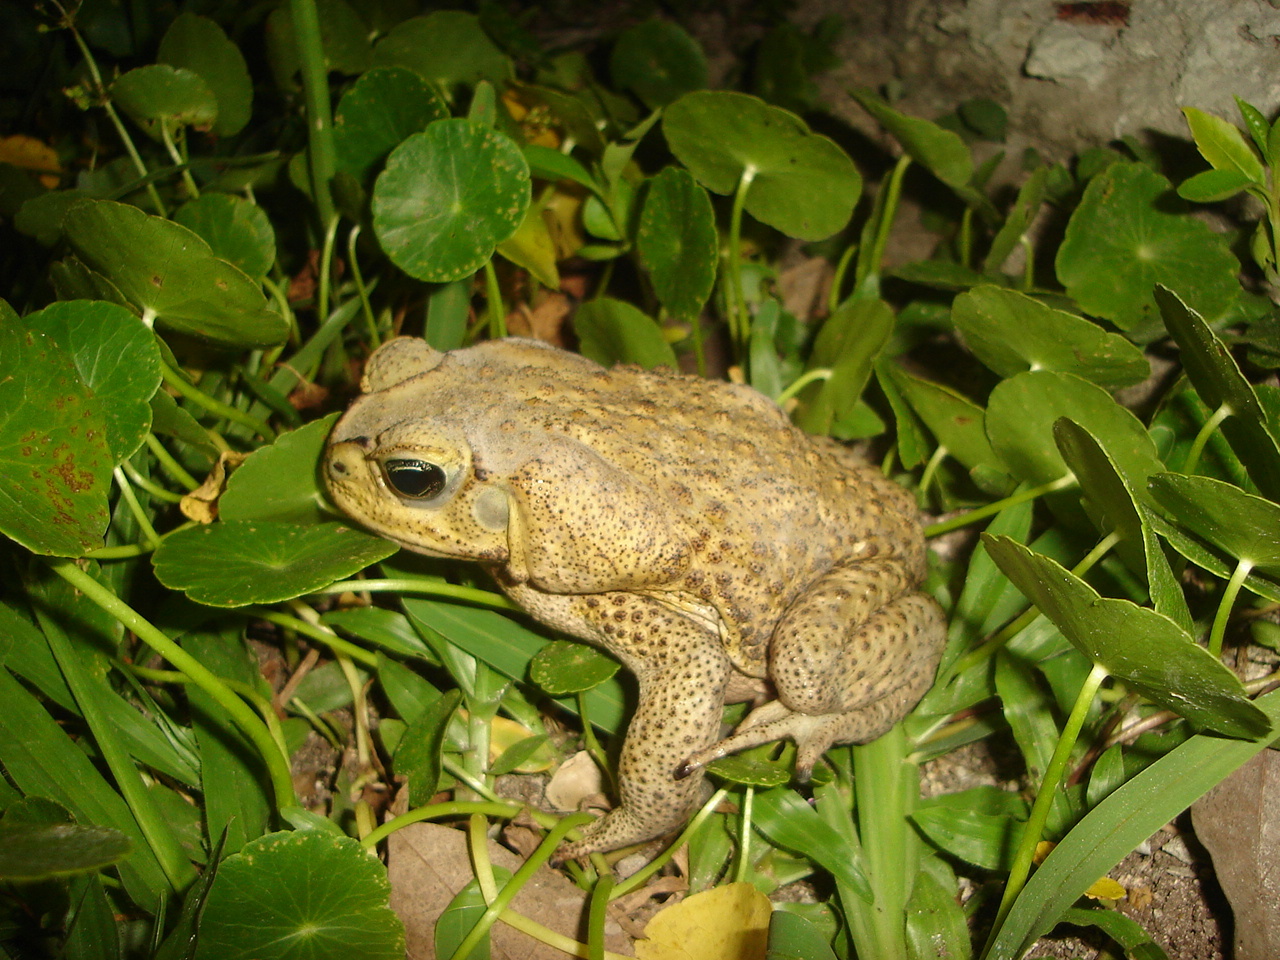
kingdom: Animalia
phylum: Chordata
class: Amphibia
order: Anura
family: Bufonidae
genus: Rhinella
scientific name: Rhinella horribilis
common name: Mesoamerican cane toad
